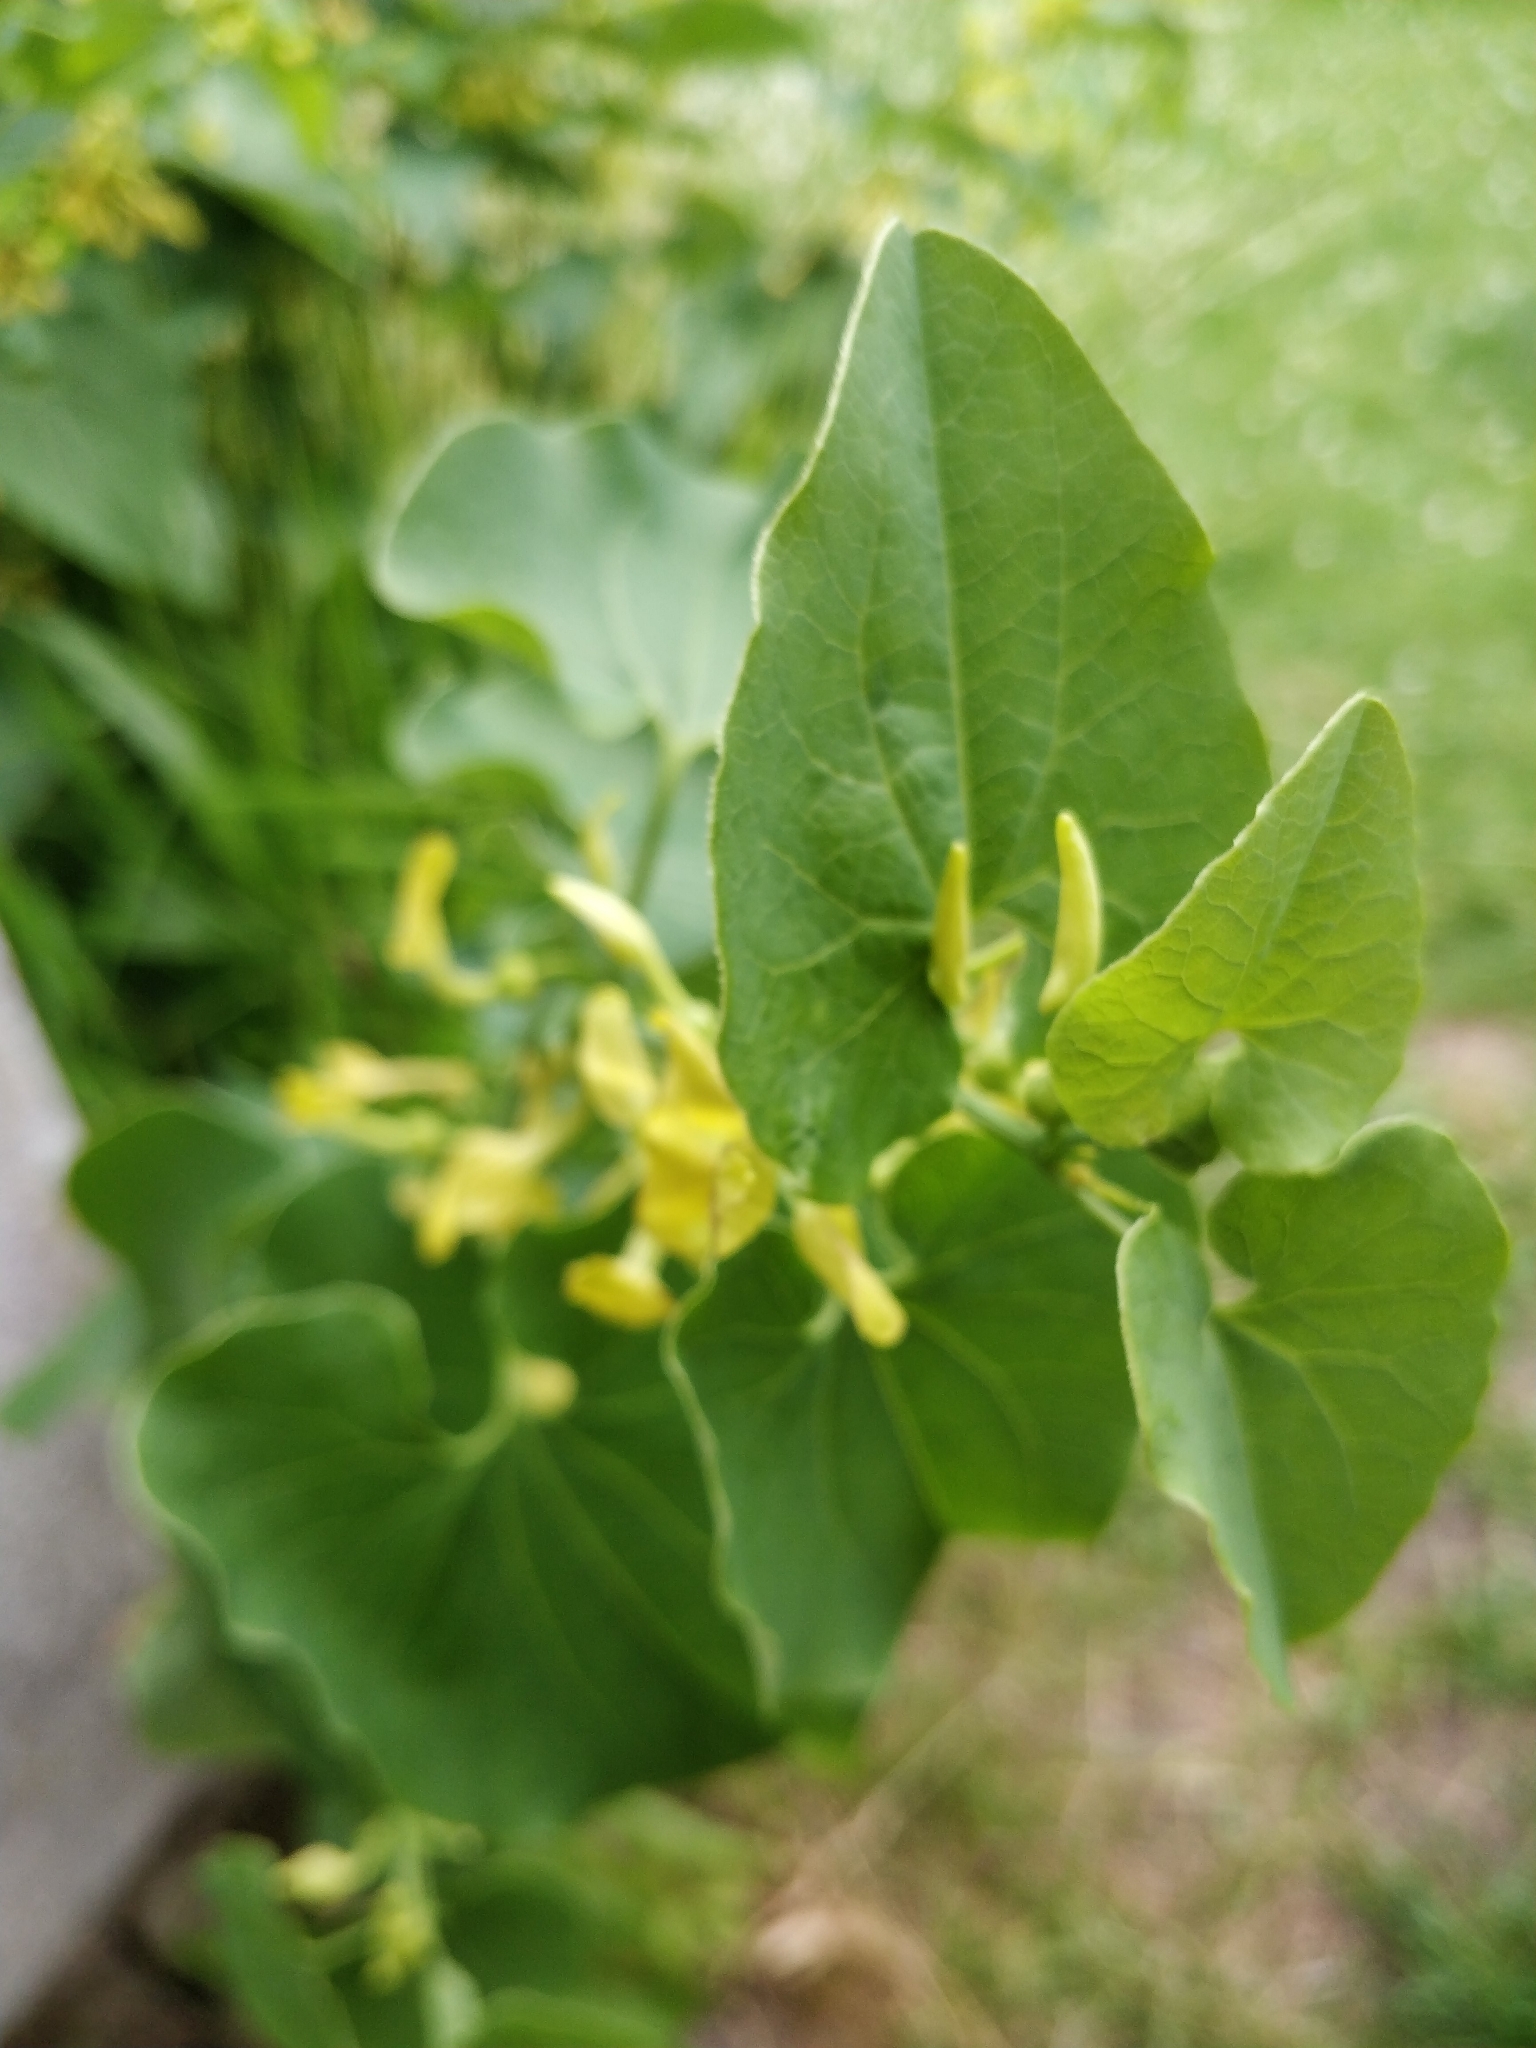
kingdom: Plantae
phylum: Tracheophyta
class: Magnoliopsida
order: Piperales
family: Aristolochiaceae
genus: Aristolochia
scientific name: Aristolochia clematitis
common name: Birthwort
